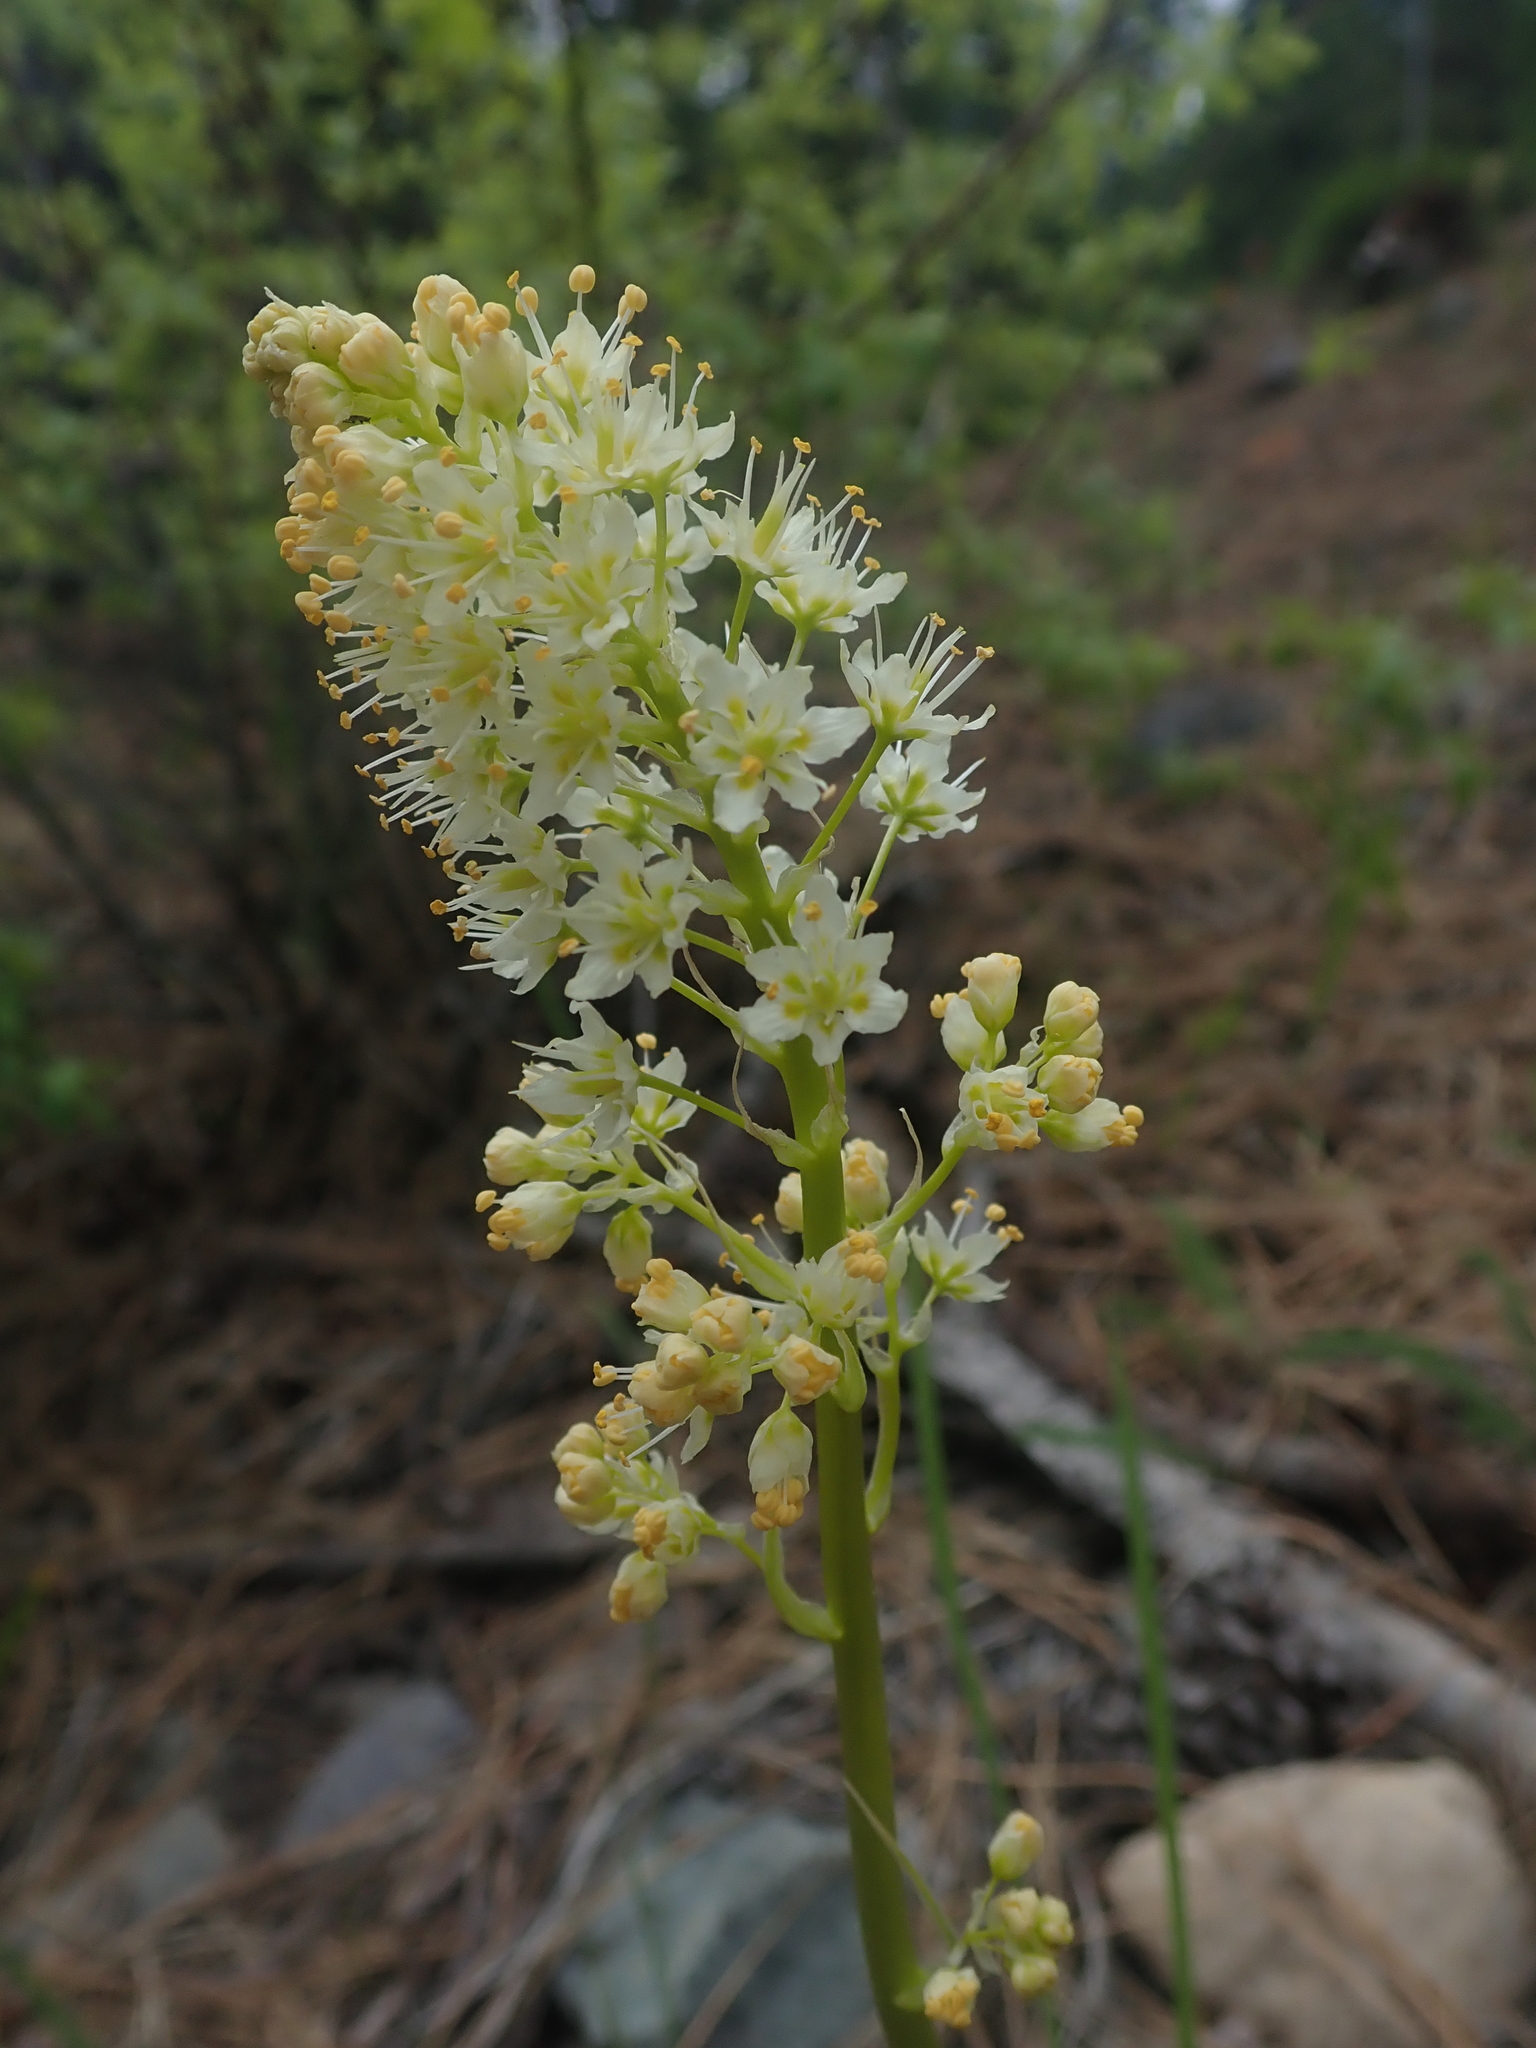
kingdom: Plantae
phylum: Tracheophyta
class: Liliopsida
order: Liliales
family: Melanthiaceae
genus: Toxicoscordion
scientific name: Toxicoscordion paniculatum
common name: Foothill death camas
